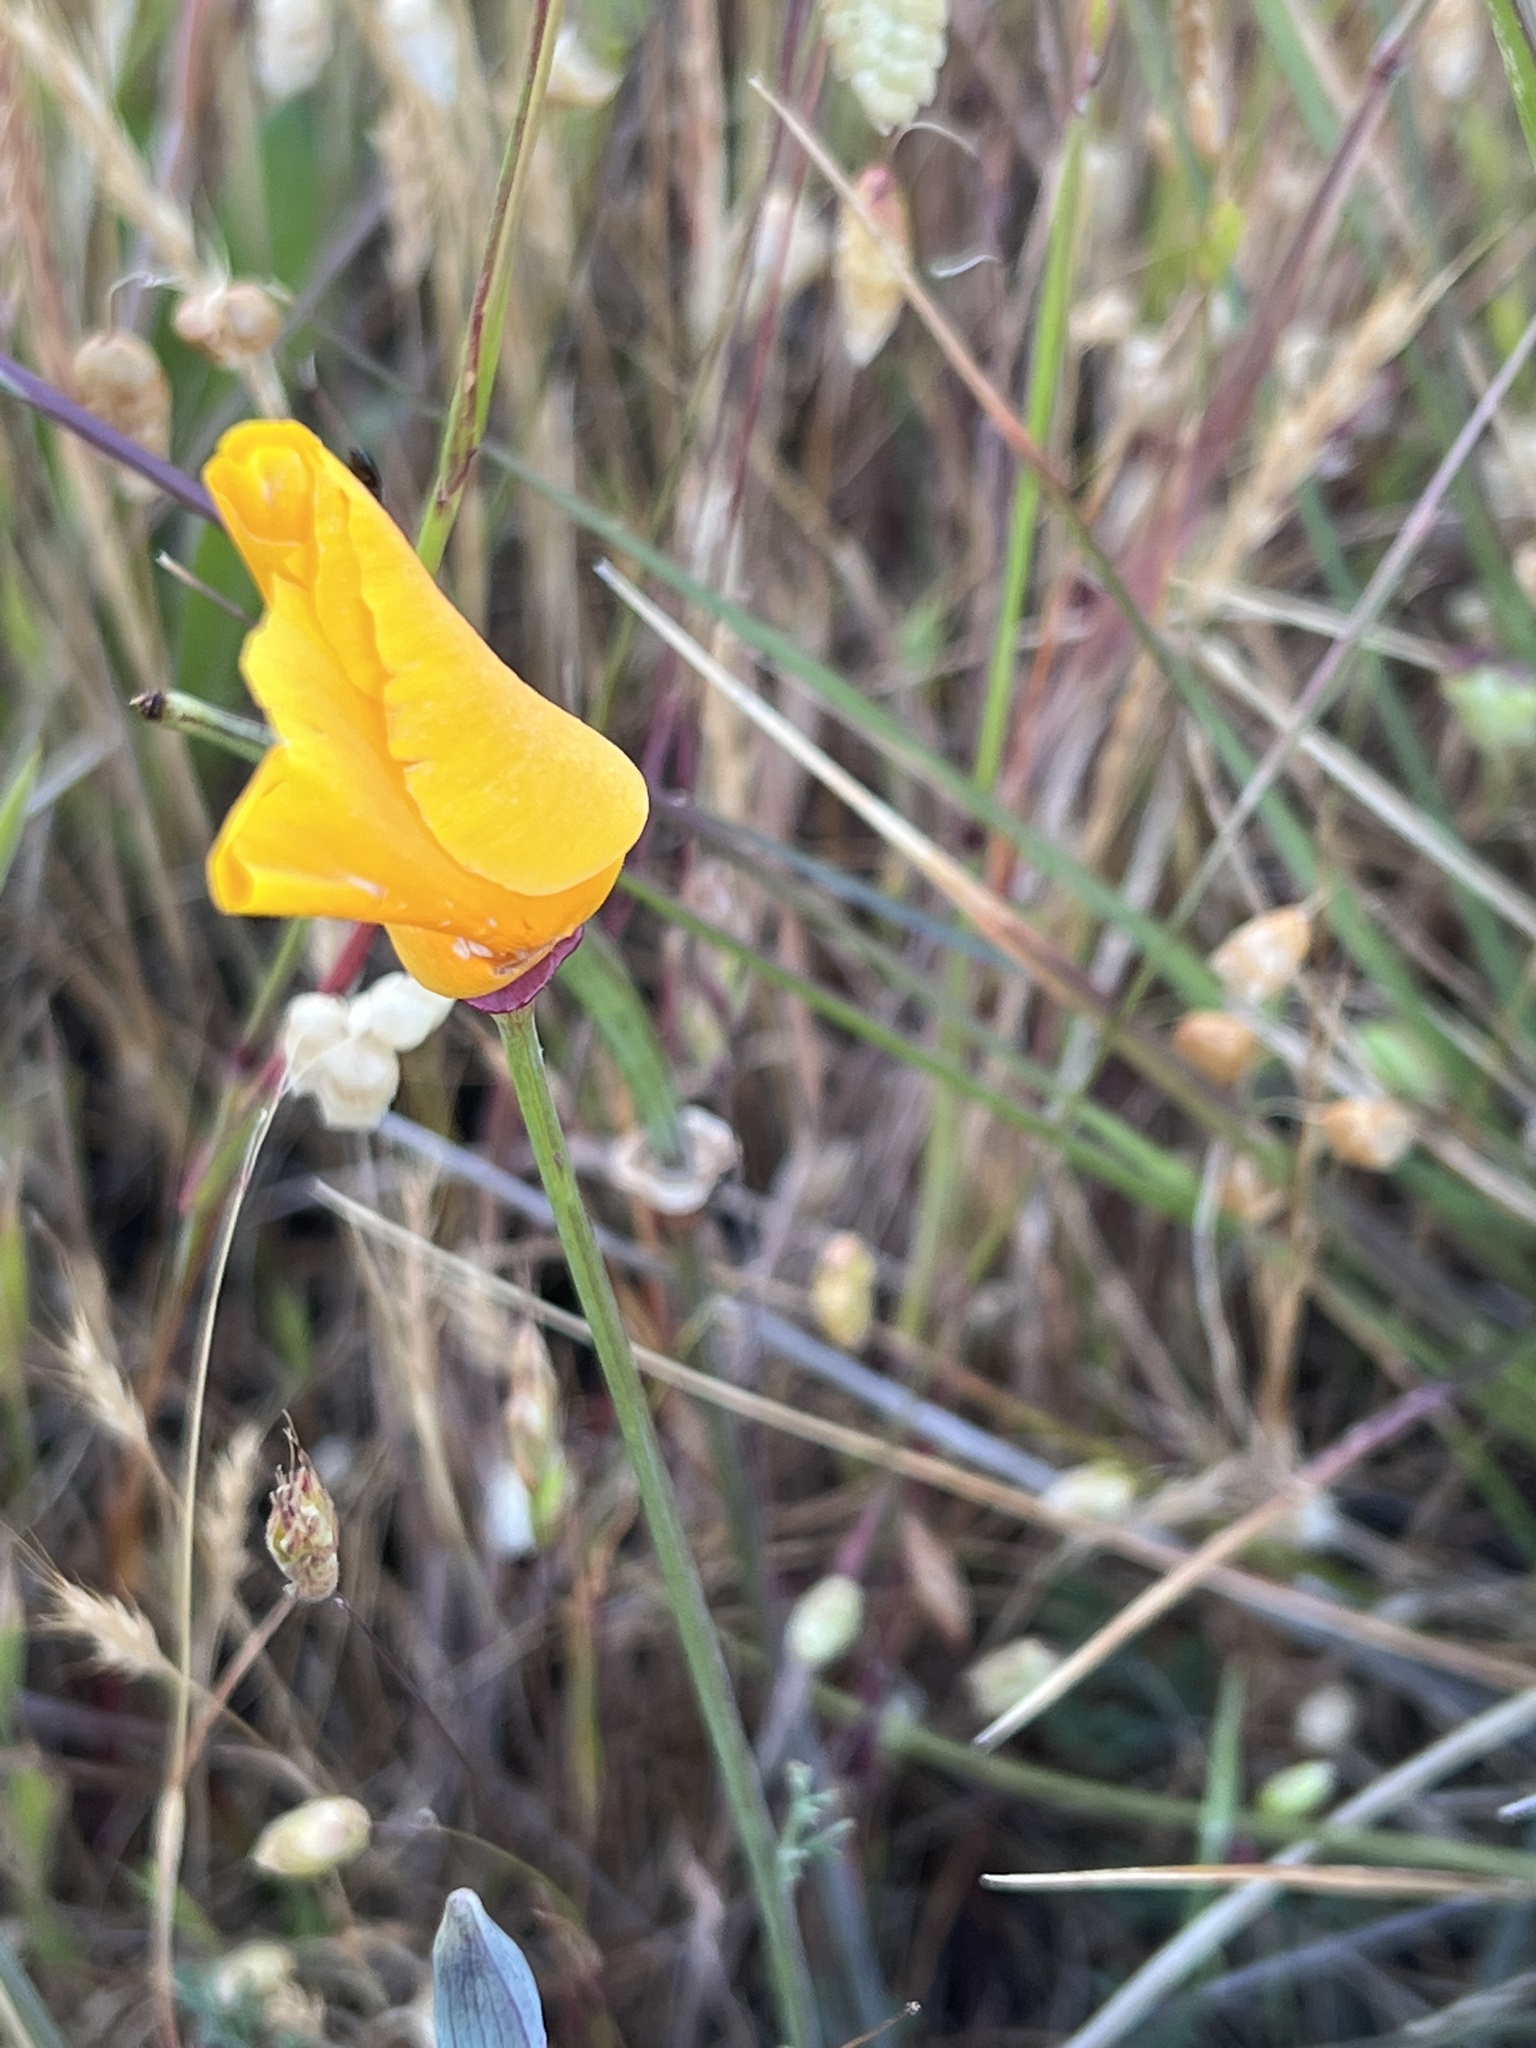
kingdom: Plantae
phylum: Tracheophyta
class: Magnoliopsida
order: Ranunculales
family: Papaveraceae
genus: Eschscholzia
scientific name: Eschscholzia californica
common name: California poppy
